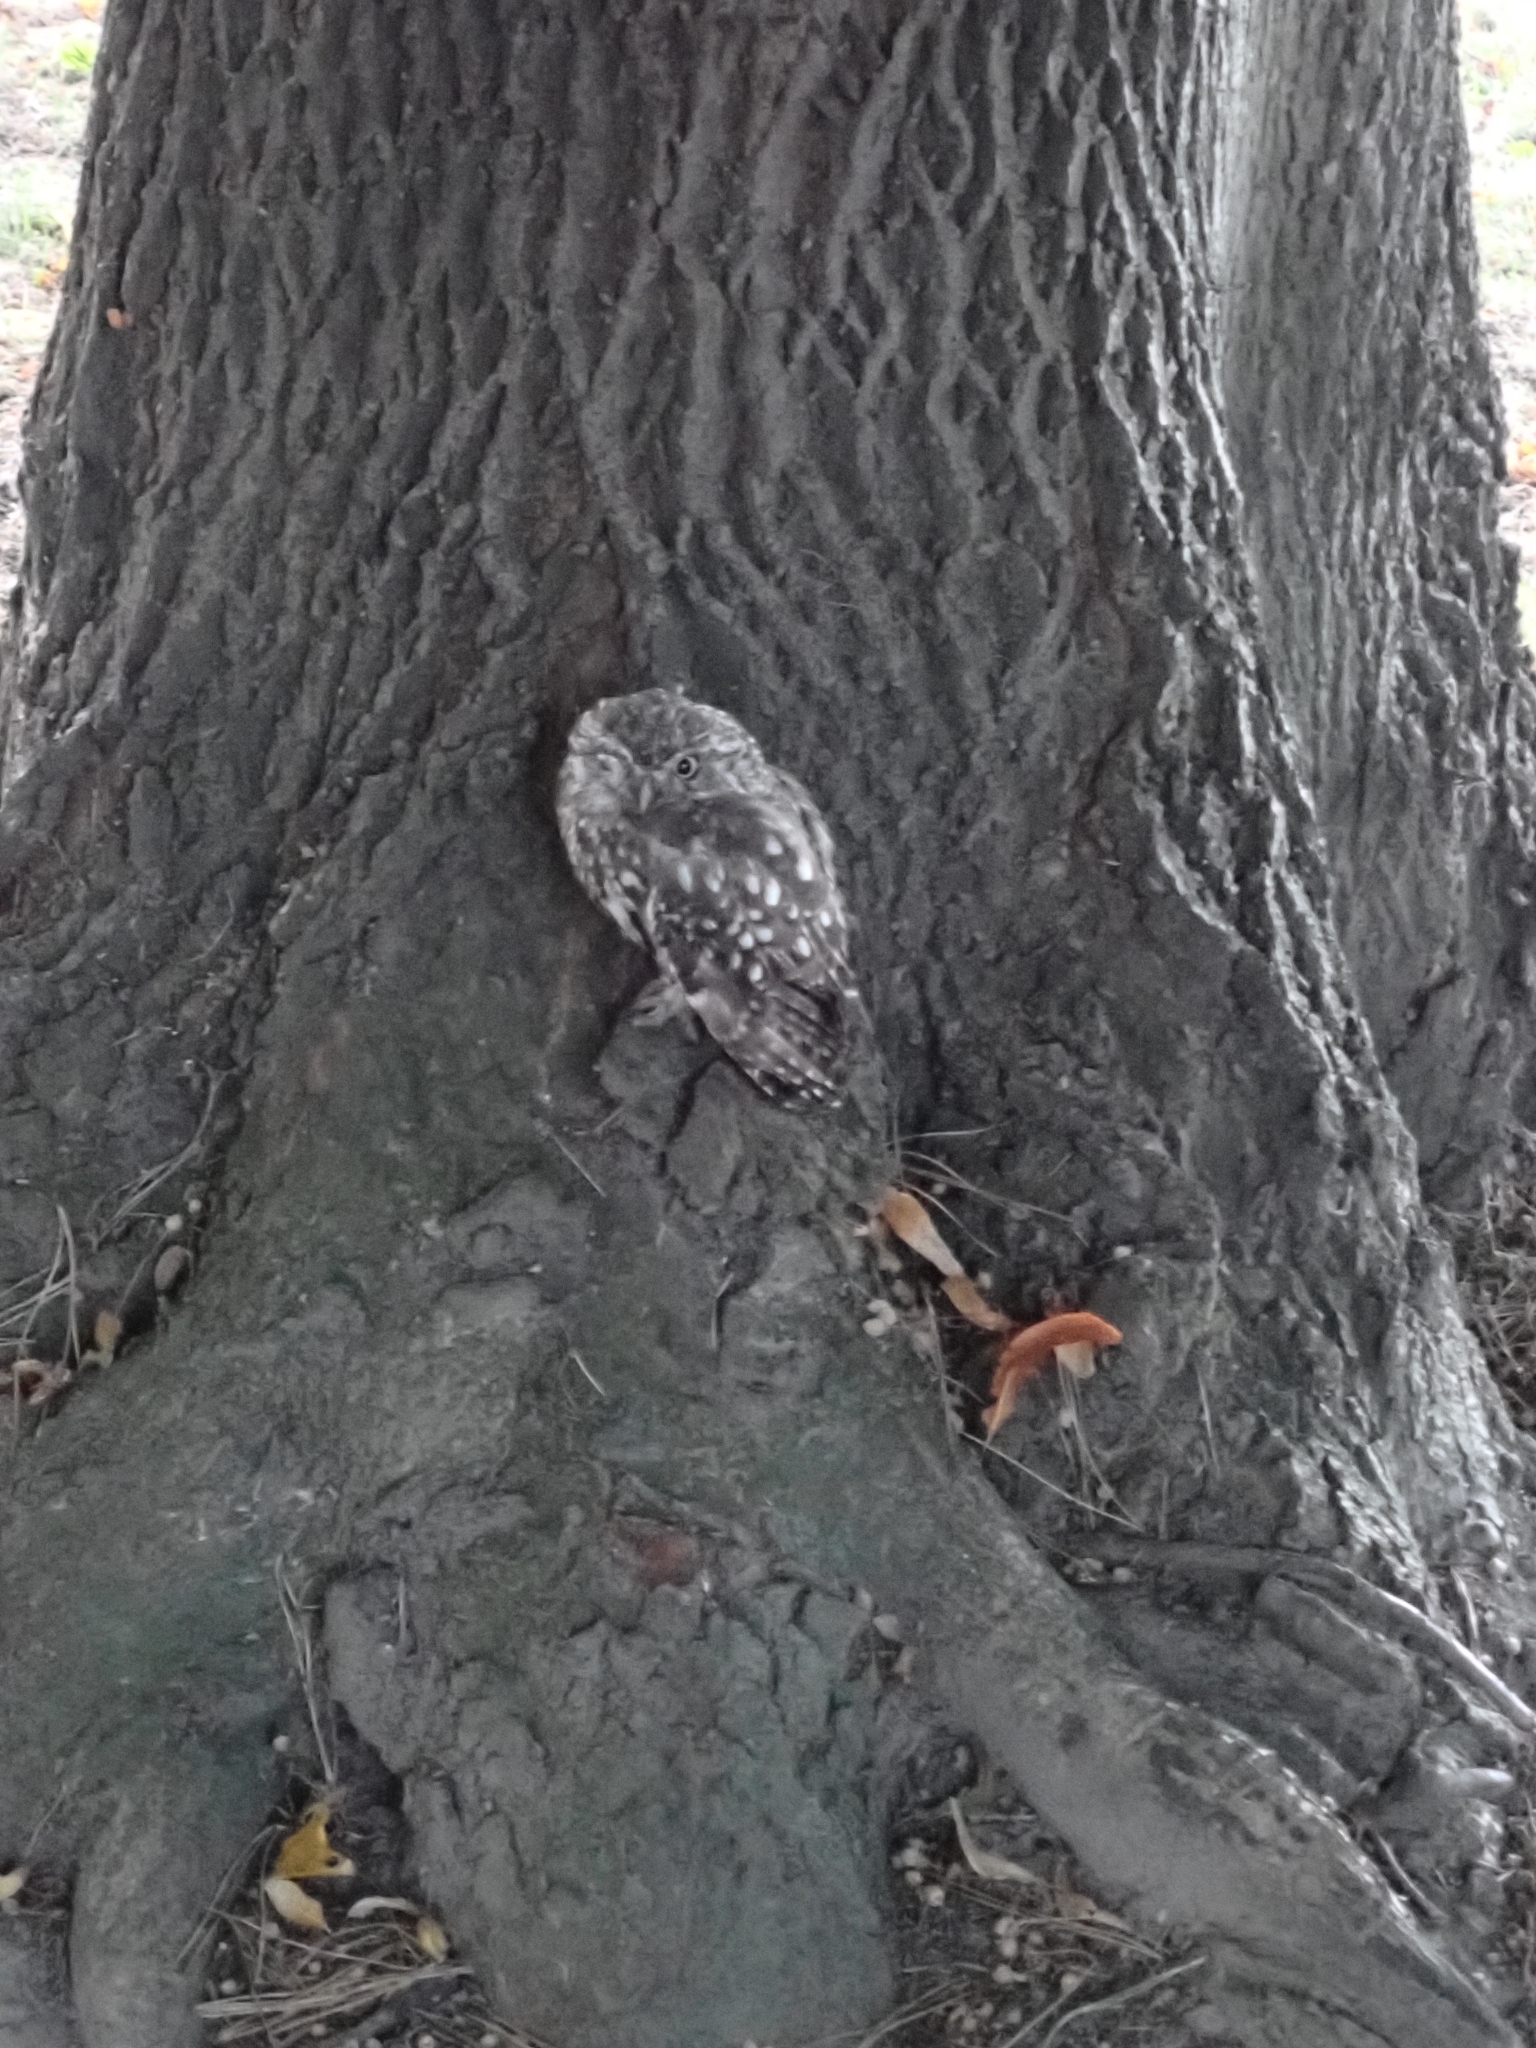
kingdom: Animalia
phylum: Chordata
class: Aves
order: Strigiformes
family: Strigidae
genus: Athene
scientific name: Athene noctua
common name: Little owl
